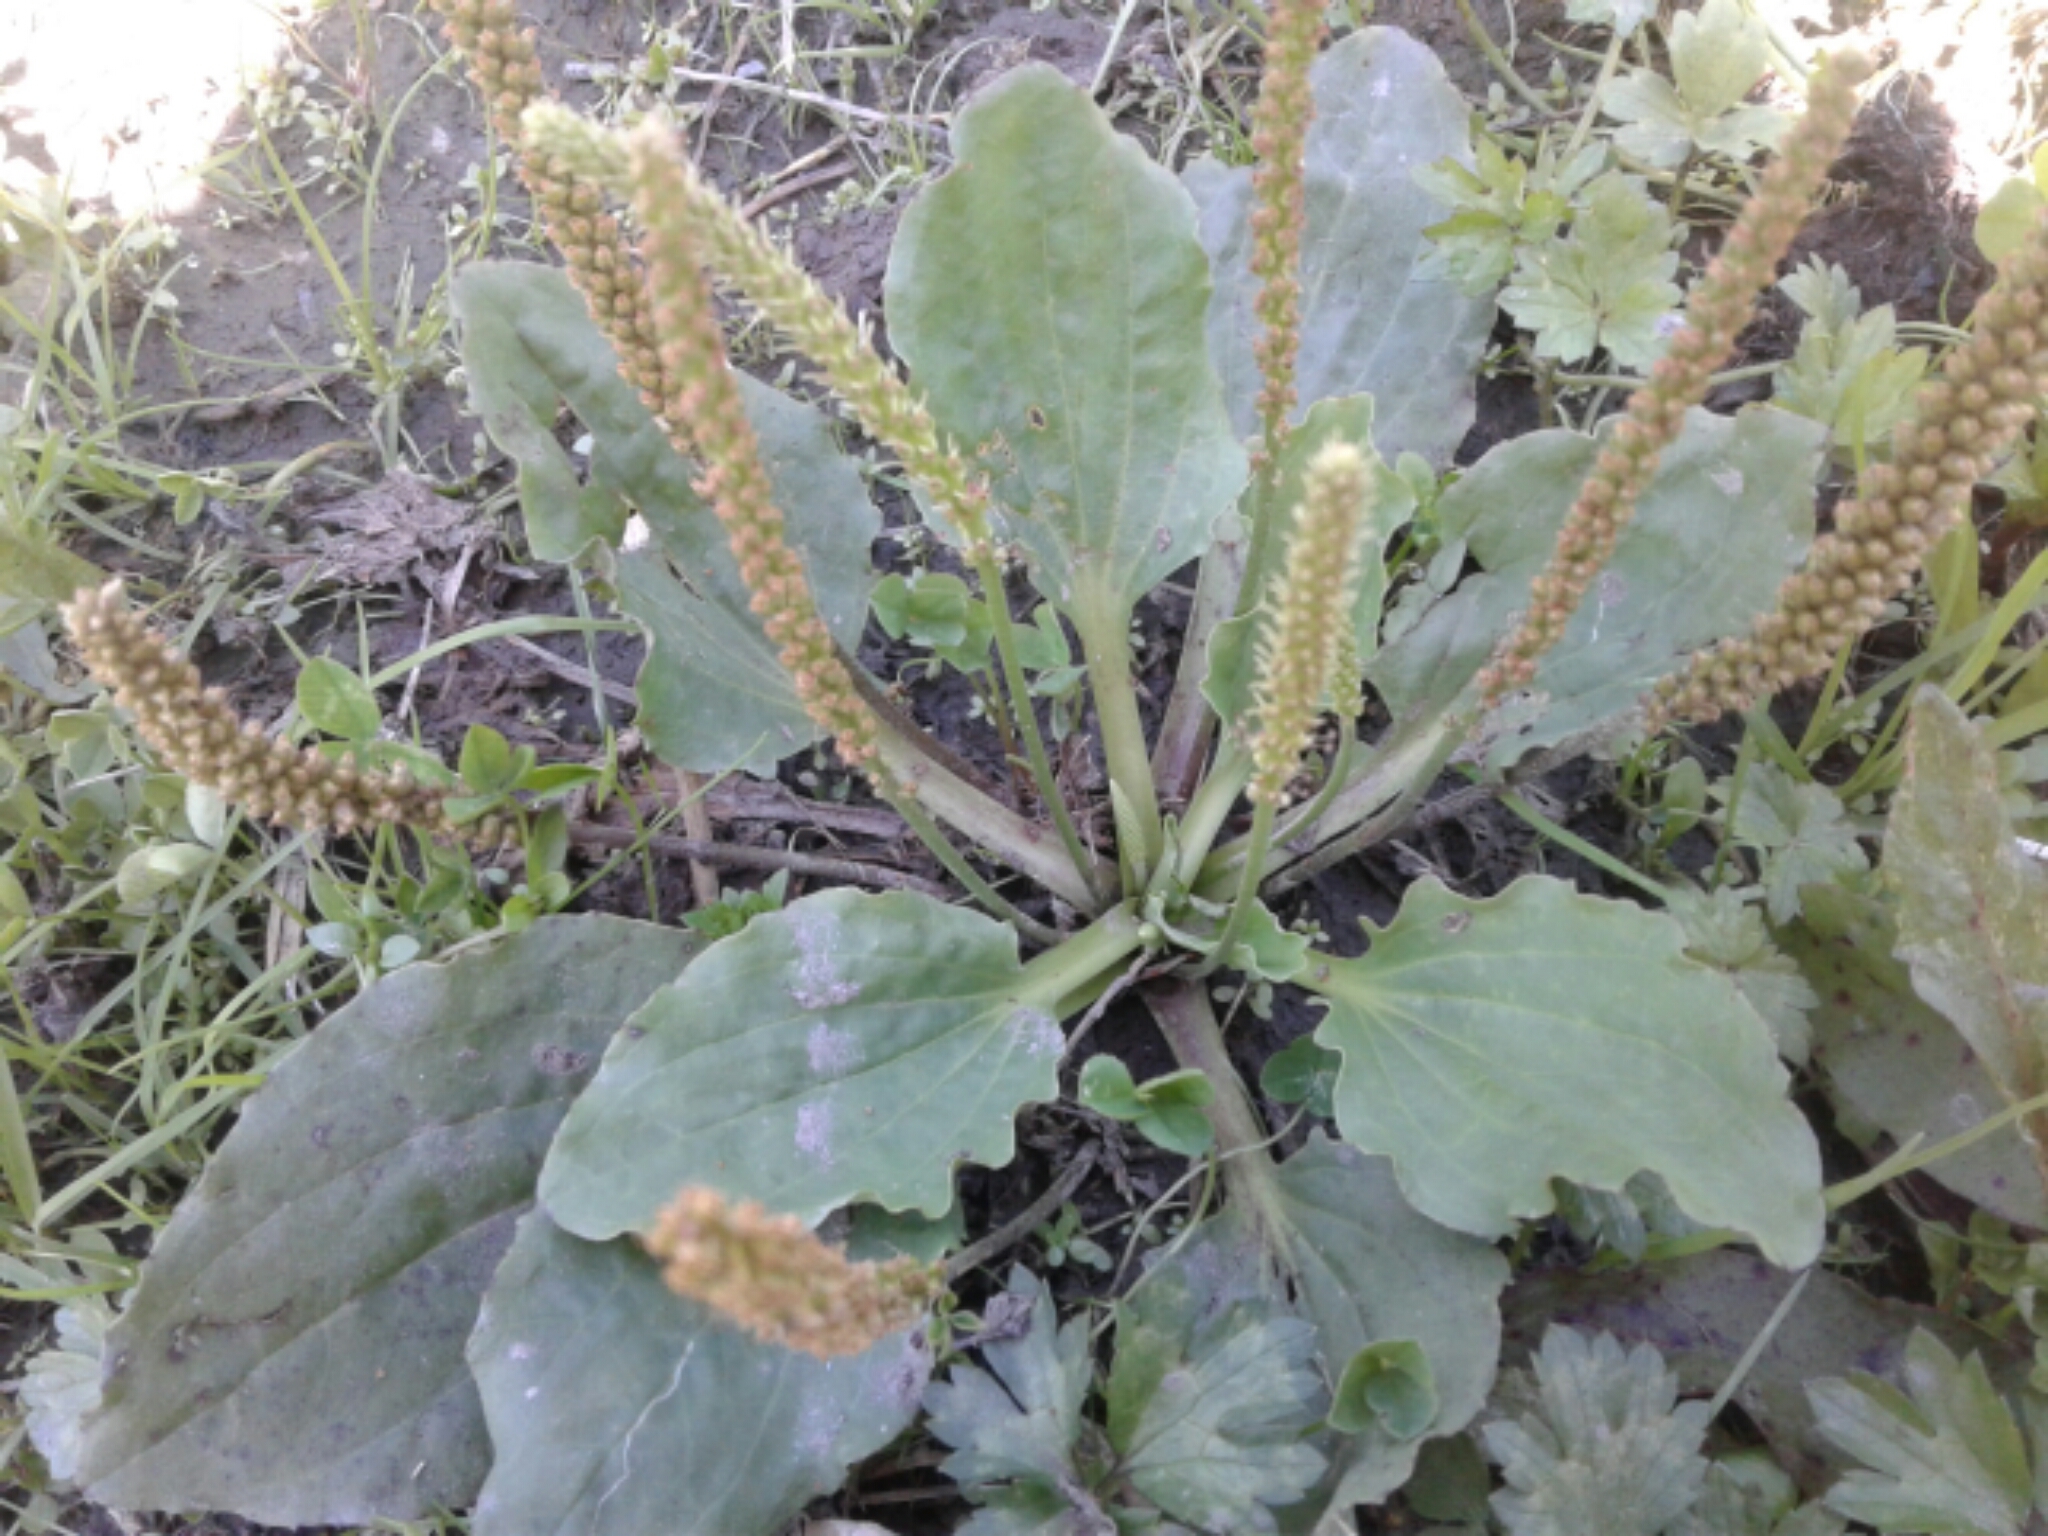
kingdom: Plantae
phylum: Tracheophyta
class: Magnoliopsida
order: Lamiales
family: Plantaginaceae
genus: Plantago
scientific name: Plantago major
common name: Common plantain
